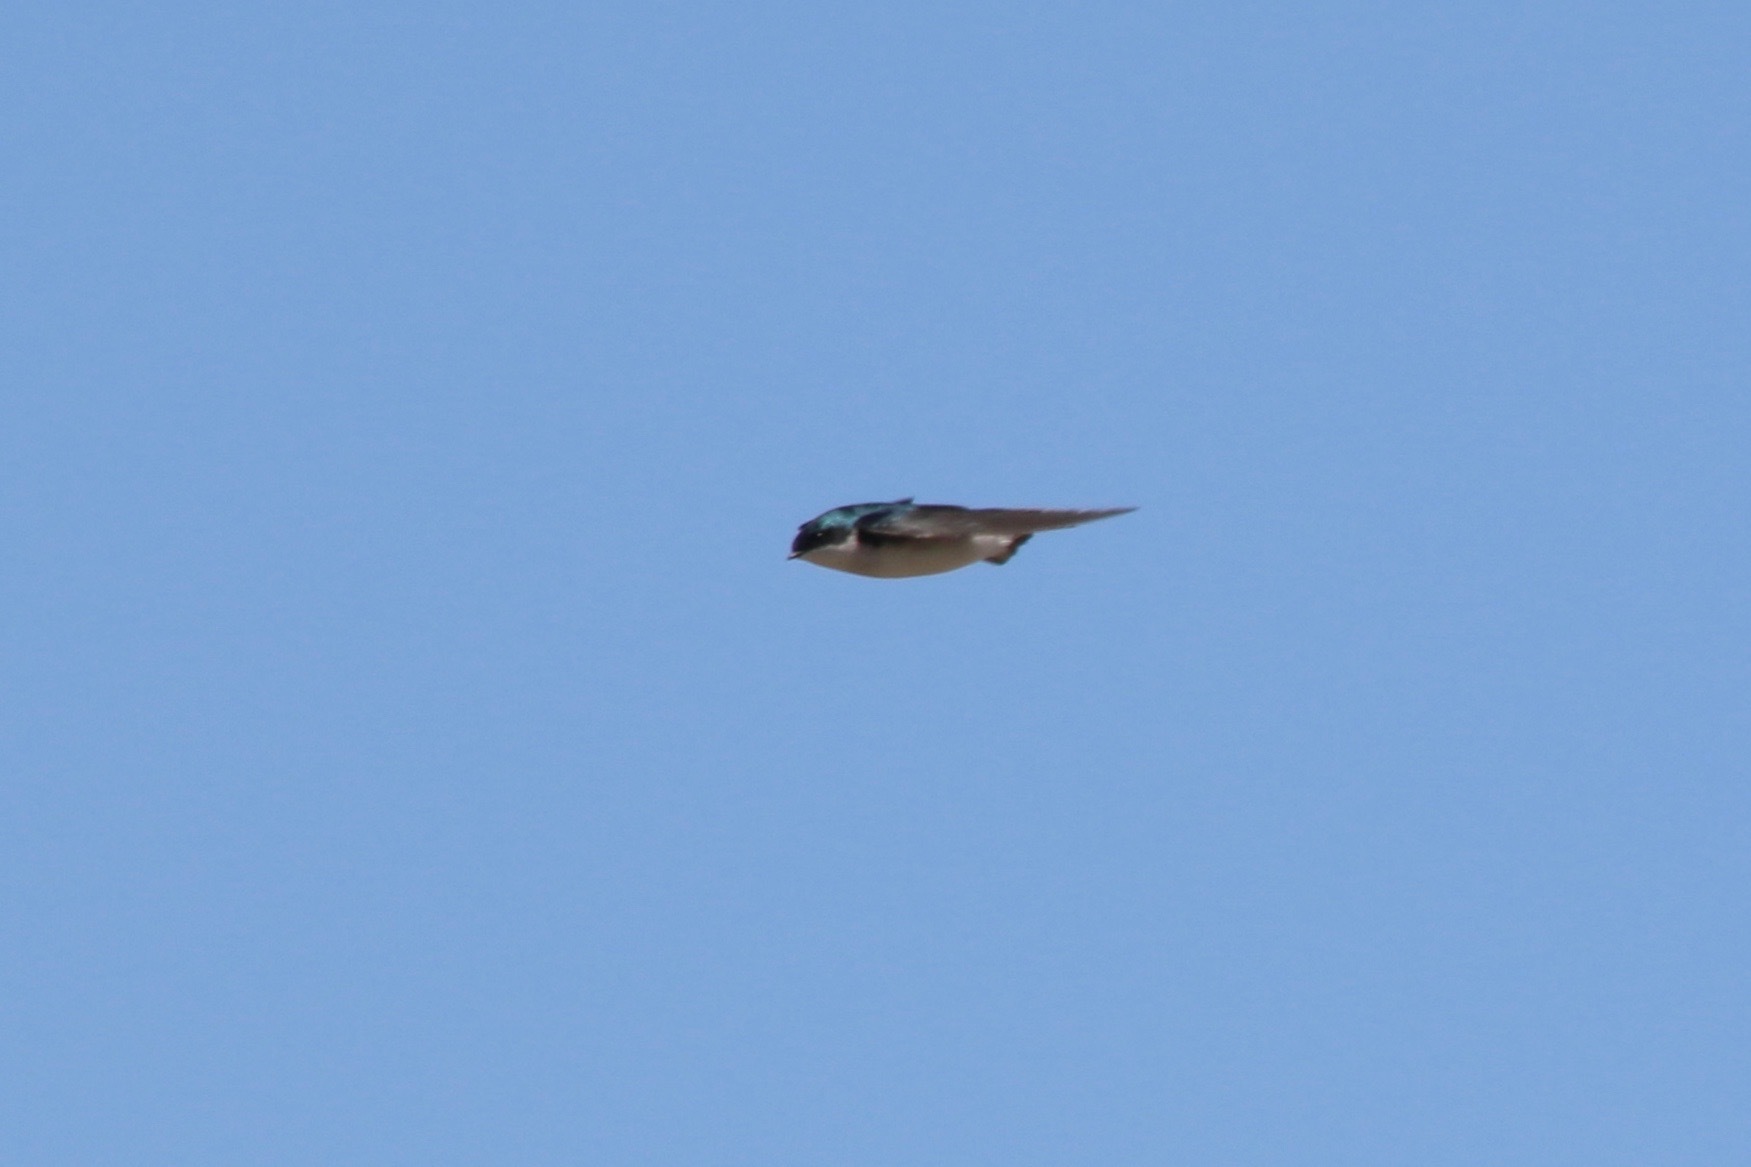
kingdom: Animalia
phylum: Chordata
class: Aves
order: Passeriformes
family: Hirundinidae
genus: Tachycineta
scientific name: Tachycineta bicolor
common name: Tree swallow
